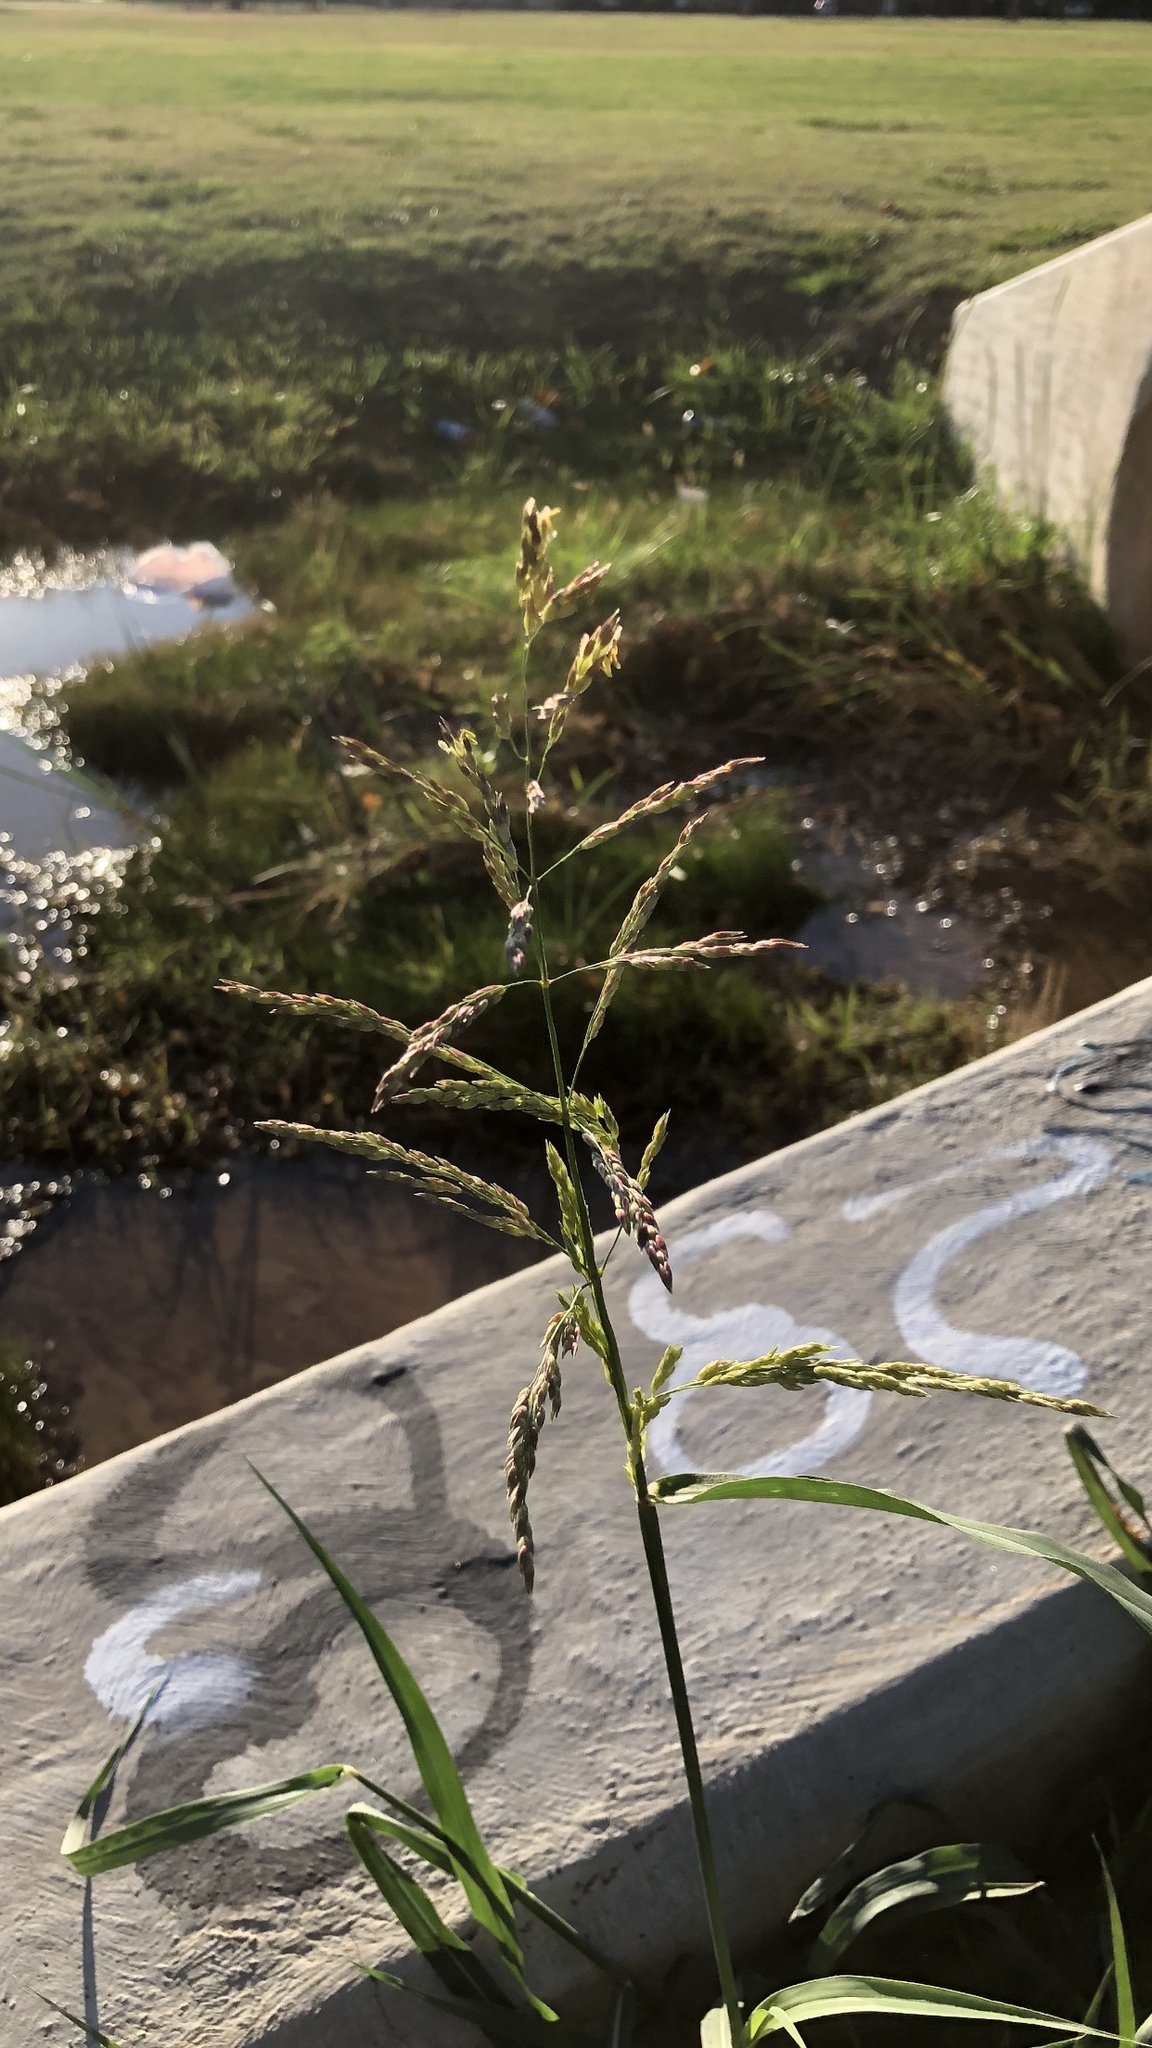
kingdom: Plantae
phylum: Tracheophyta
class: Liliopsida
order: Poales
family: Poaceae
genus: Sorghum
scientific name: Sorghum halepense
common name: Johnson-grass
